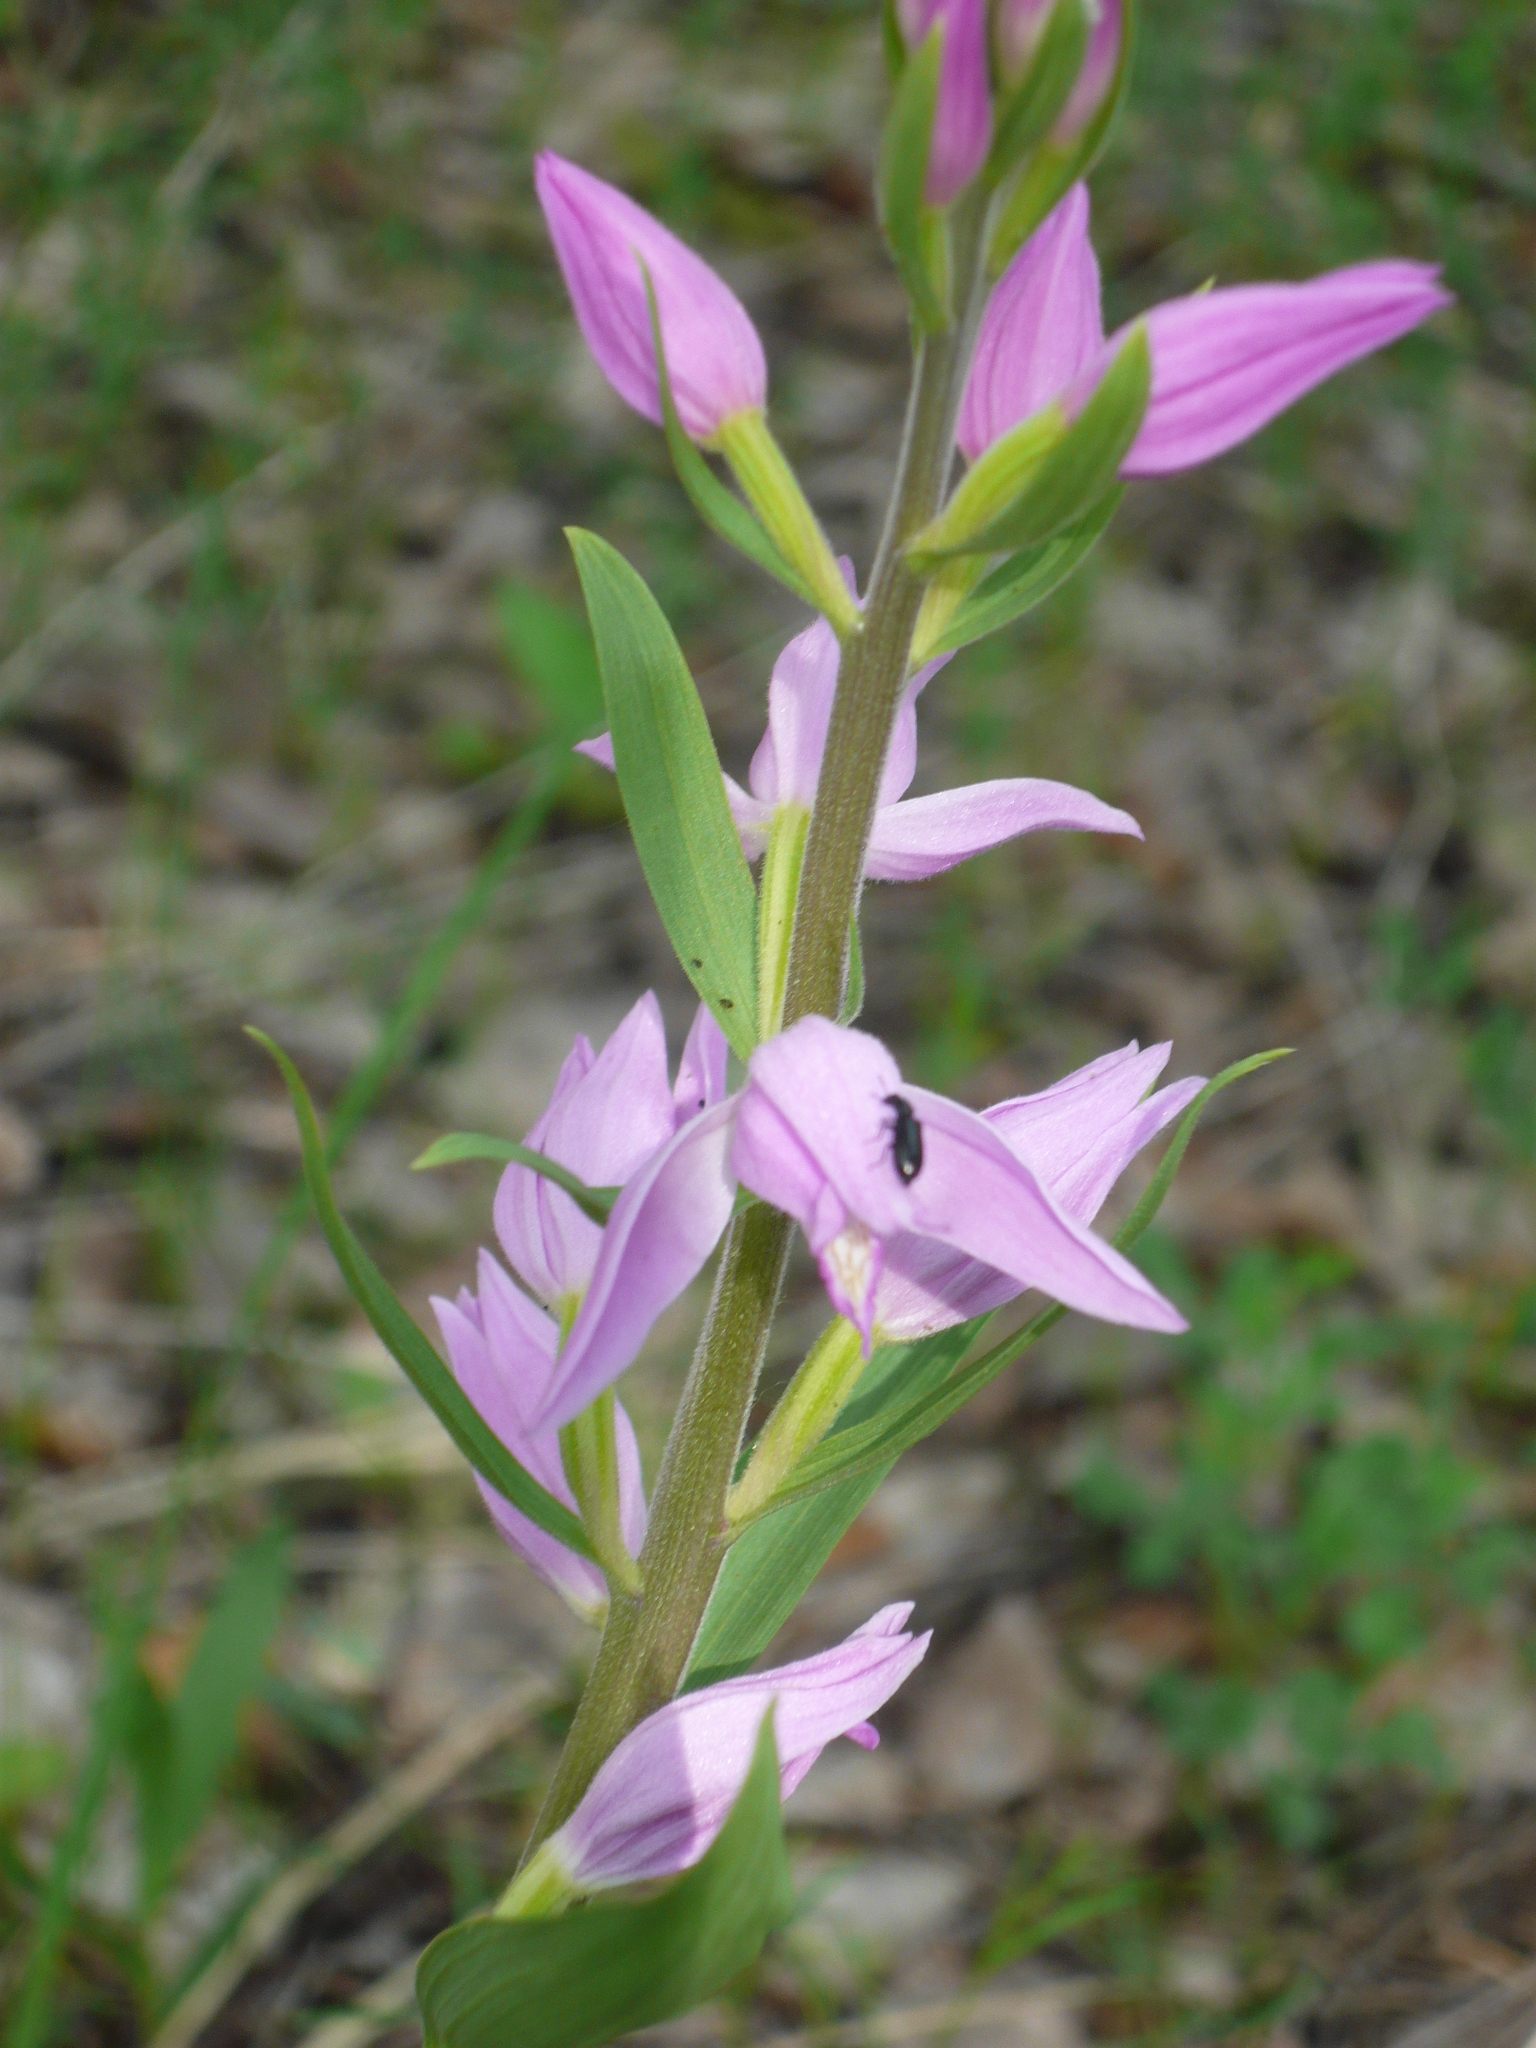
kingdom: Plantae
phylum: Tracheophyta
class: Liliopsida
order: Asparagales
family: Orchidaceae
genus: Cephalanthera
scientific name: Cephalanthera rubra
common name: Red helleborine
